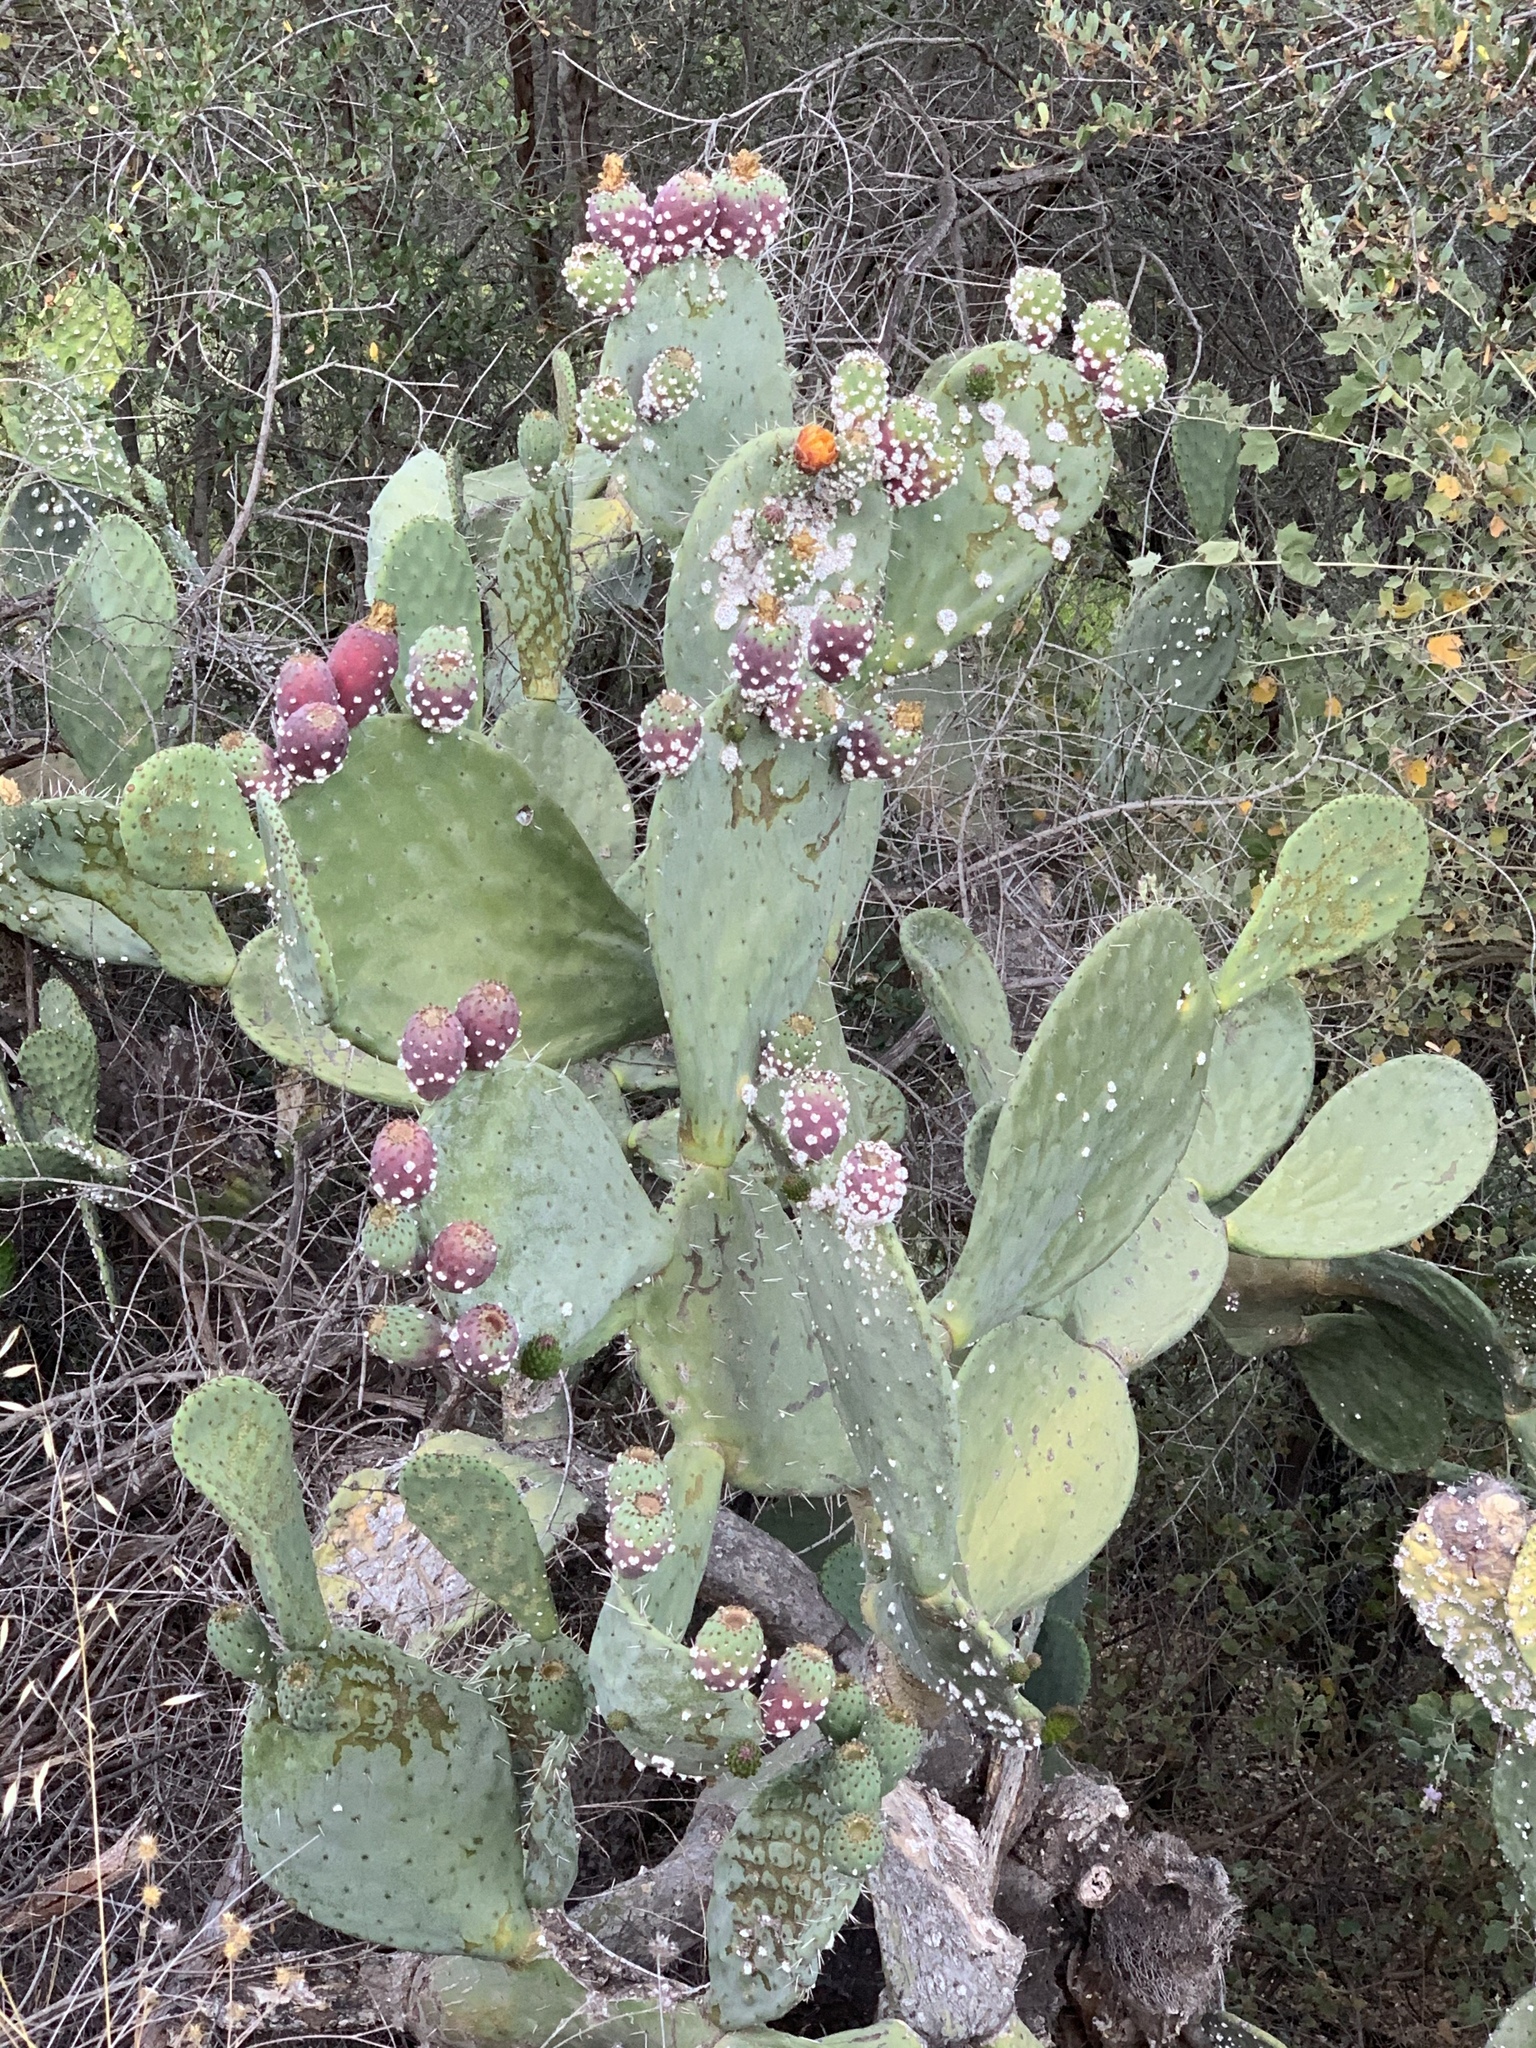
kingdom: Plantae
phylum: Tracheophyta
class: Magnoliopsida
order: Caryophyllales
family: Cactaceae
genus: Opuntia
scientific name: Opuntia ficus-indica
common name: Barbary fig
